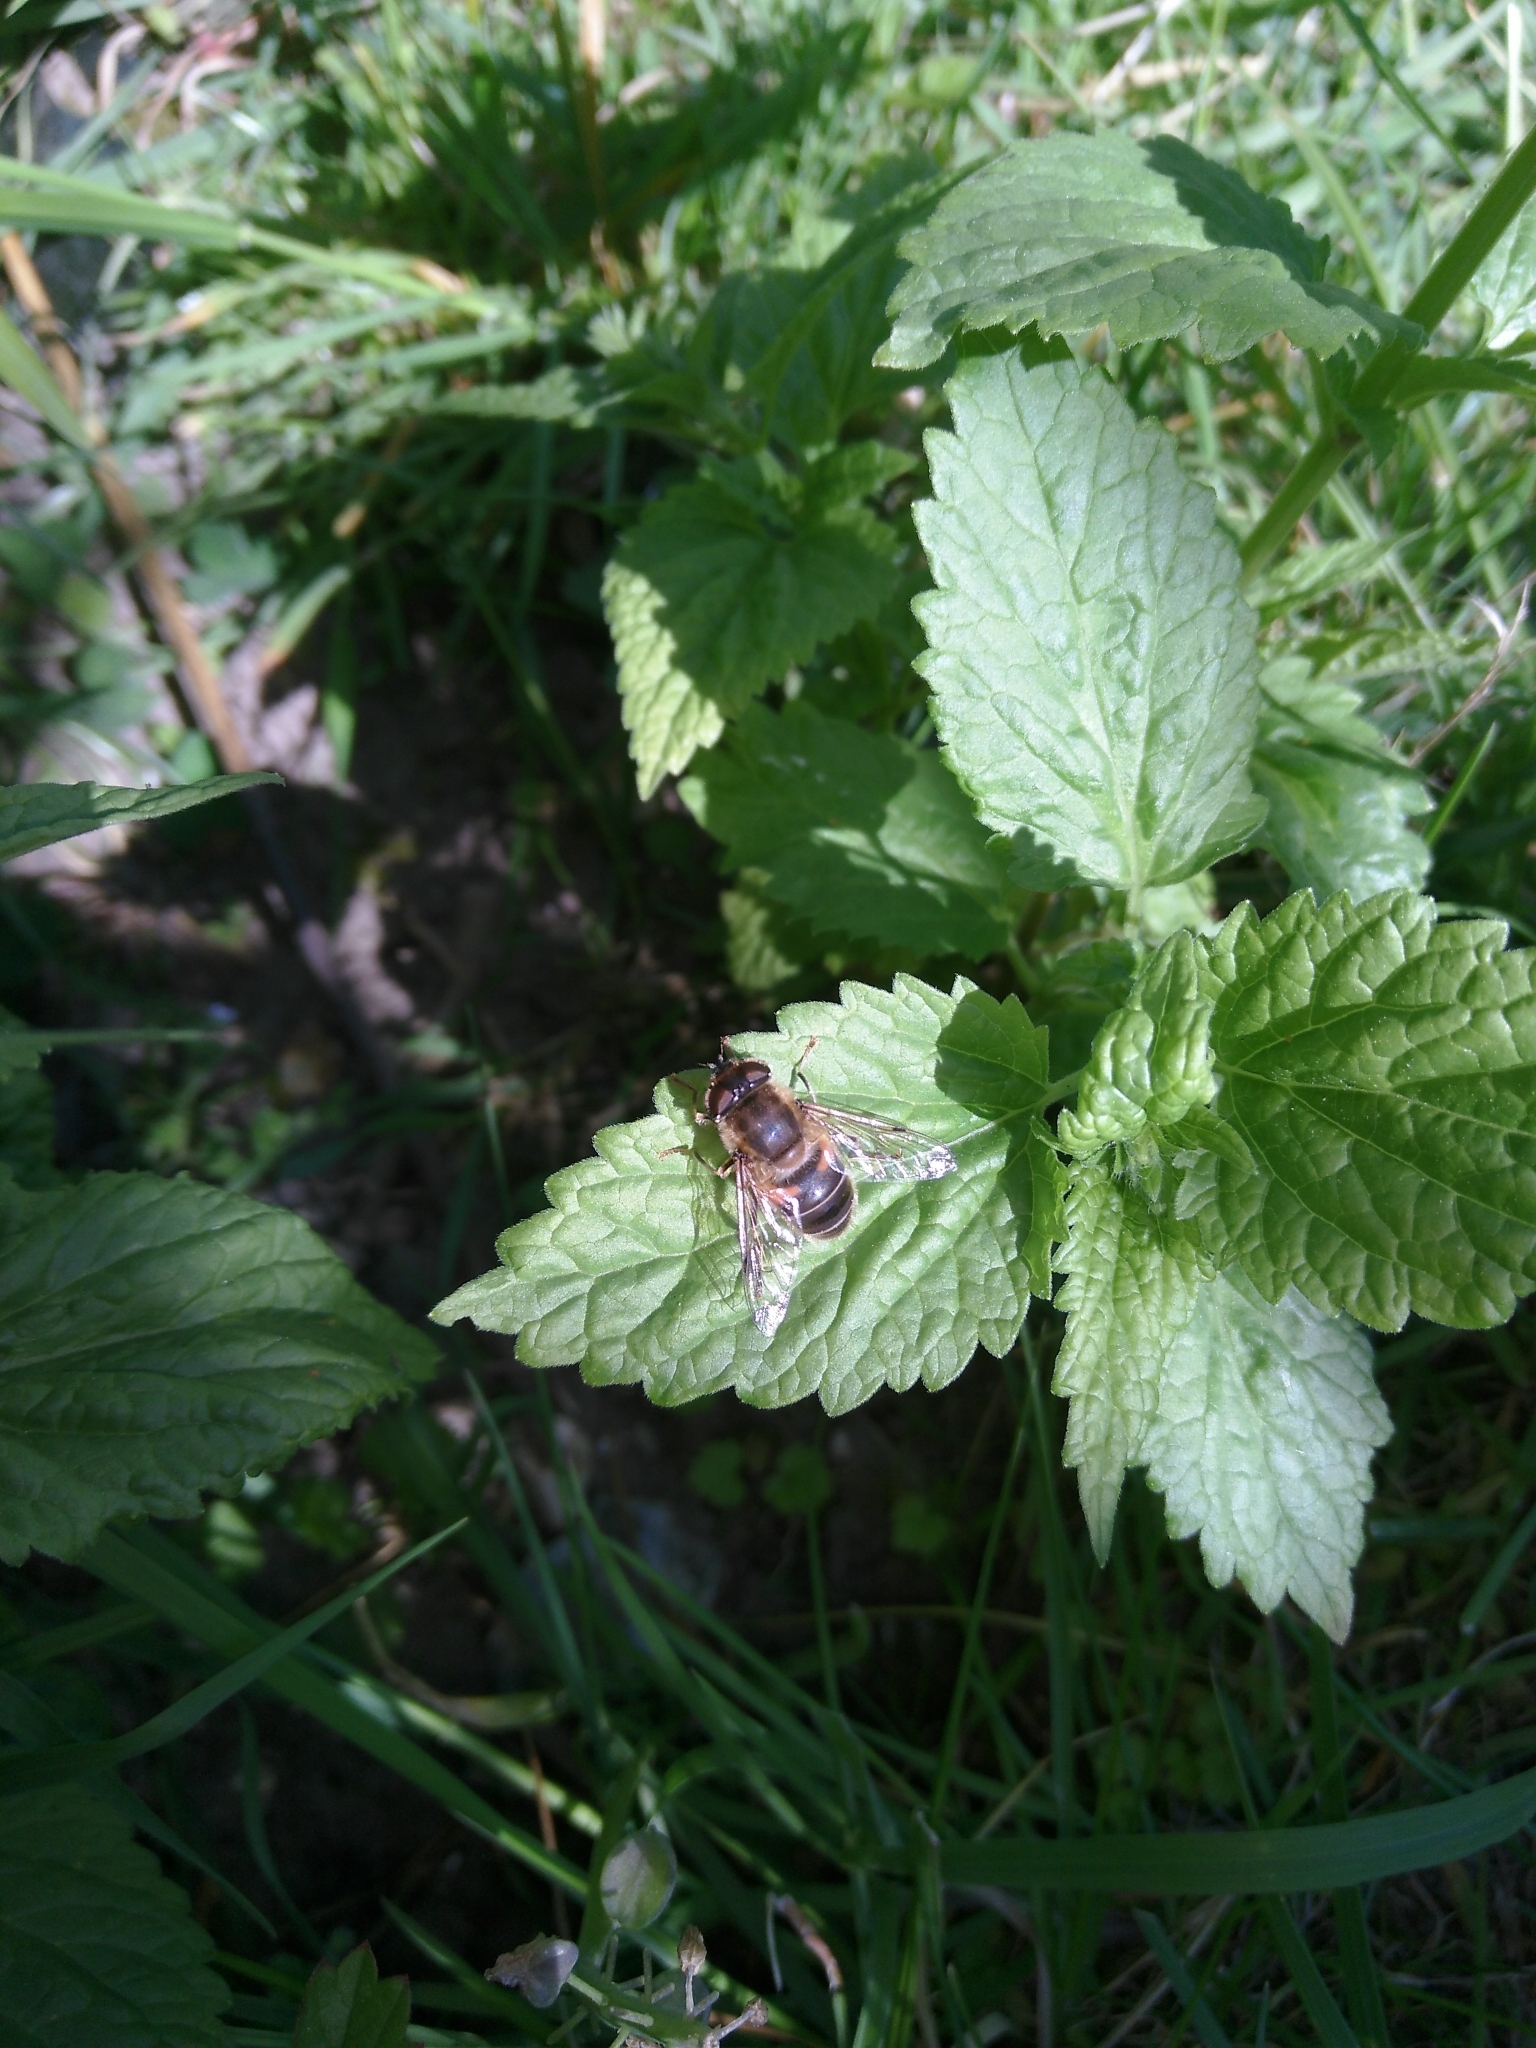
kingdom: Animalia
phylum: Arthropoda
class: Insecta
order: Diptera
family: Syrphidae
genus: Eristalis
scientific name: Eristalis pertinax
